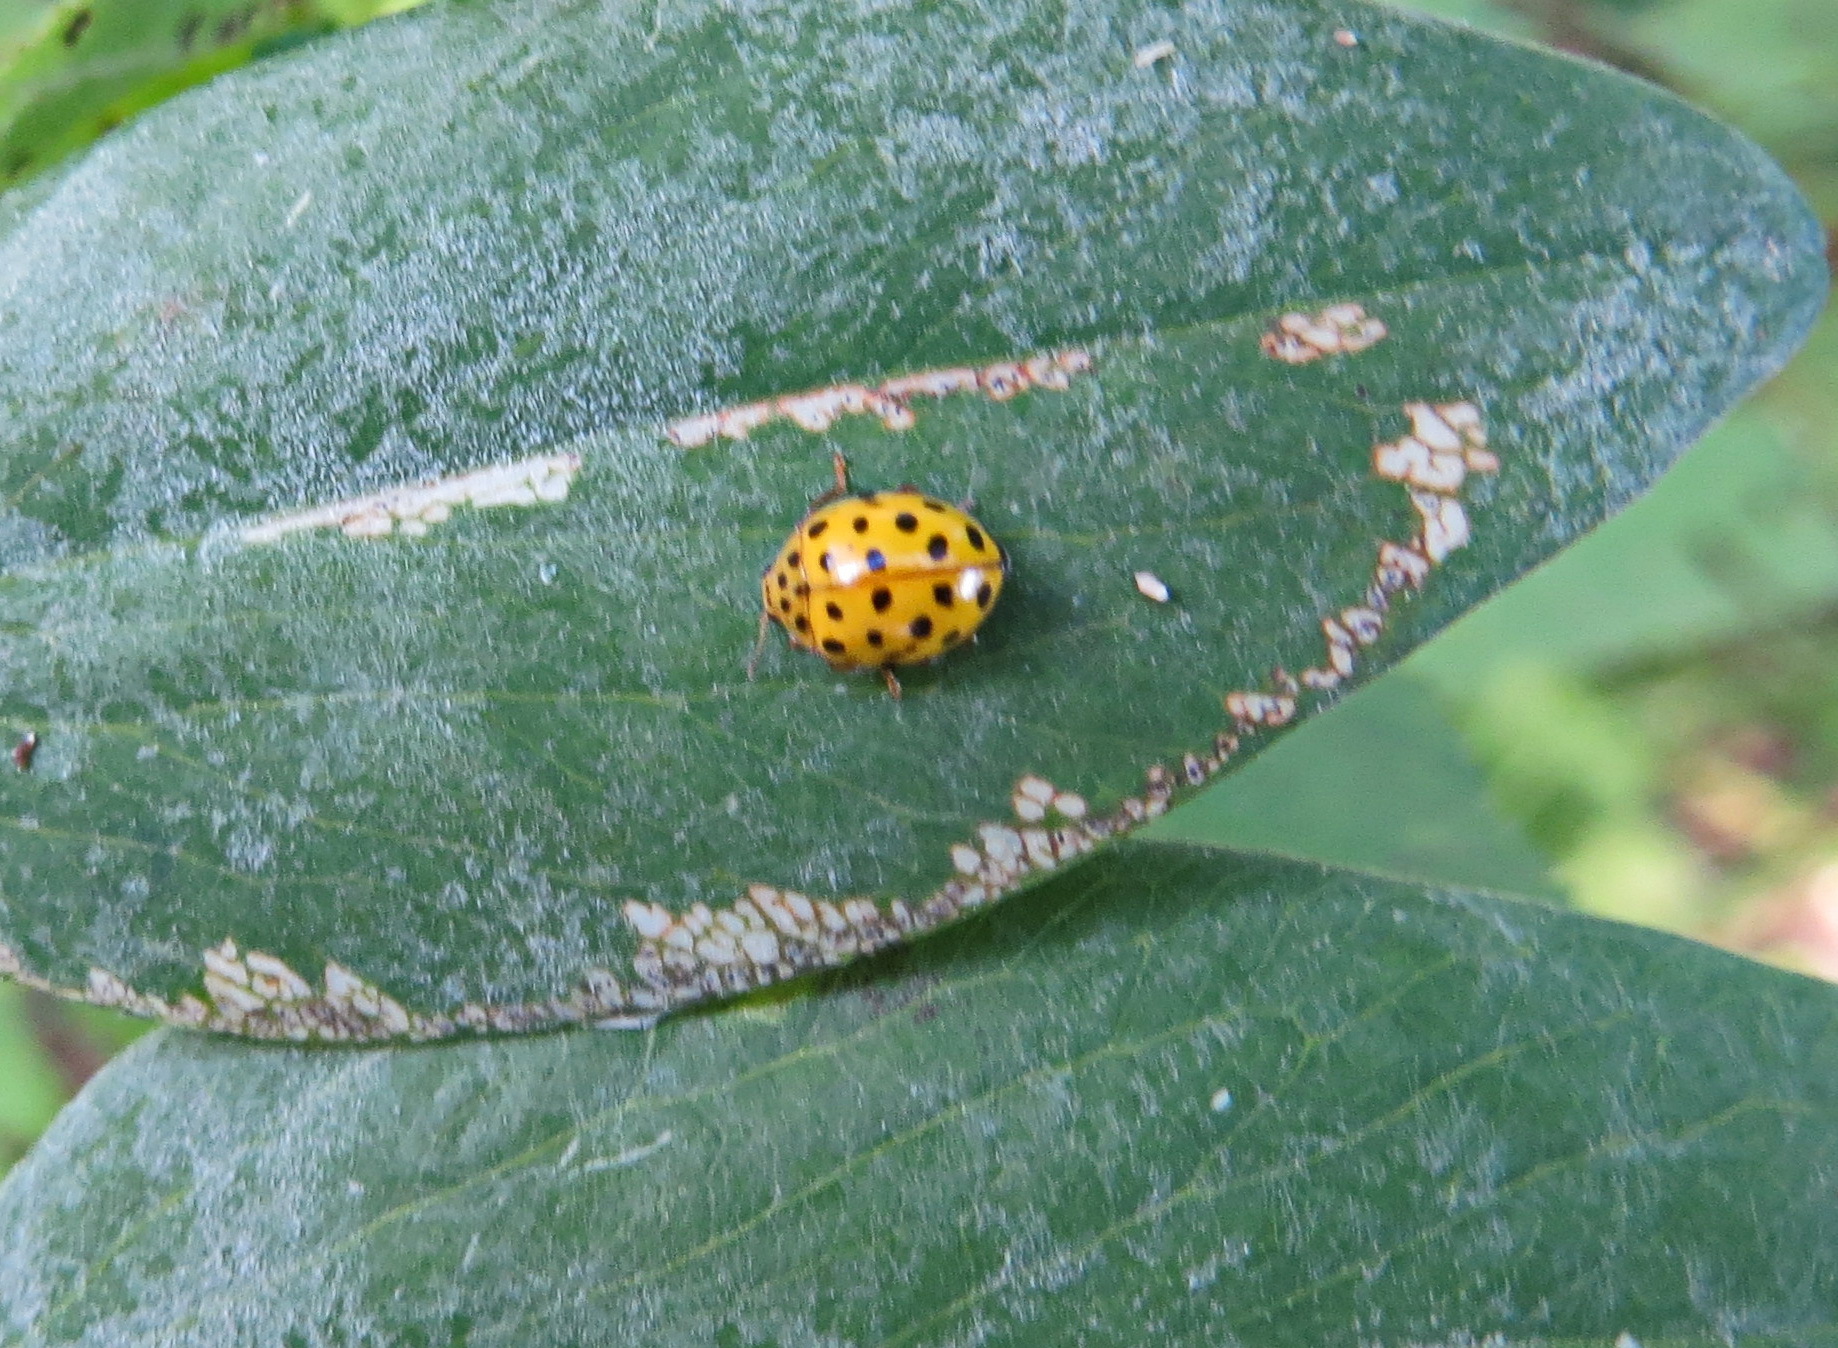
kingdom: Animalia
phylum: Arthropoda
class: Insecta
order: Coleoptera
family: Coccinellidae
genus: Psyllobora
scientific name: Psyllobora vigintiduopunctata
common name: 22-spot ladybird
